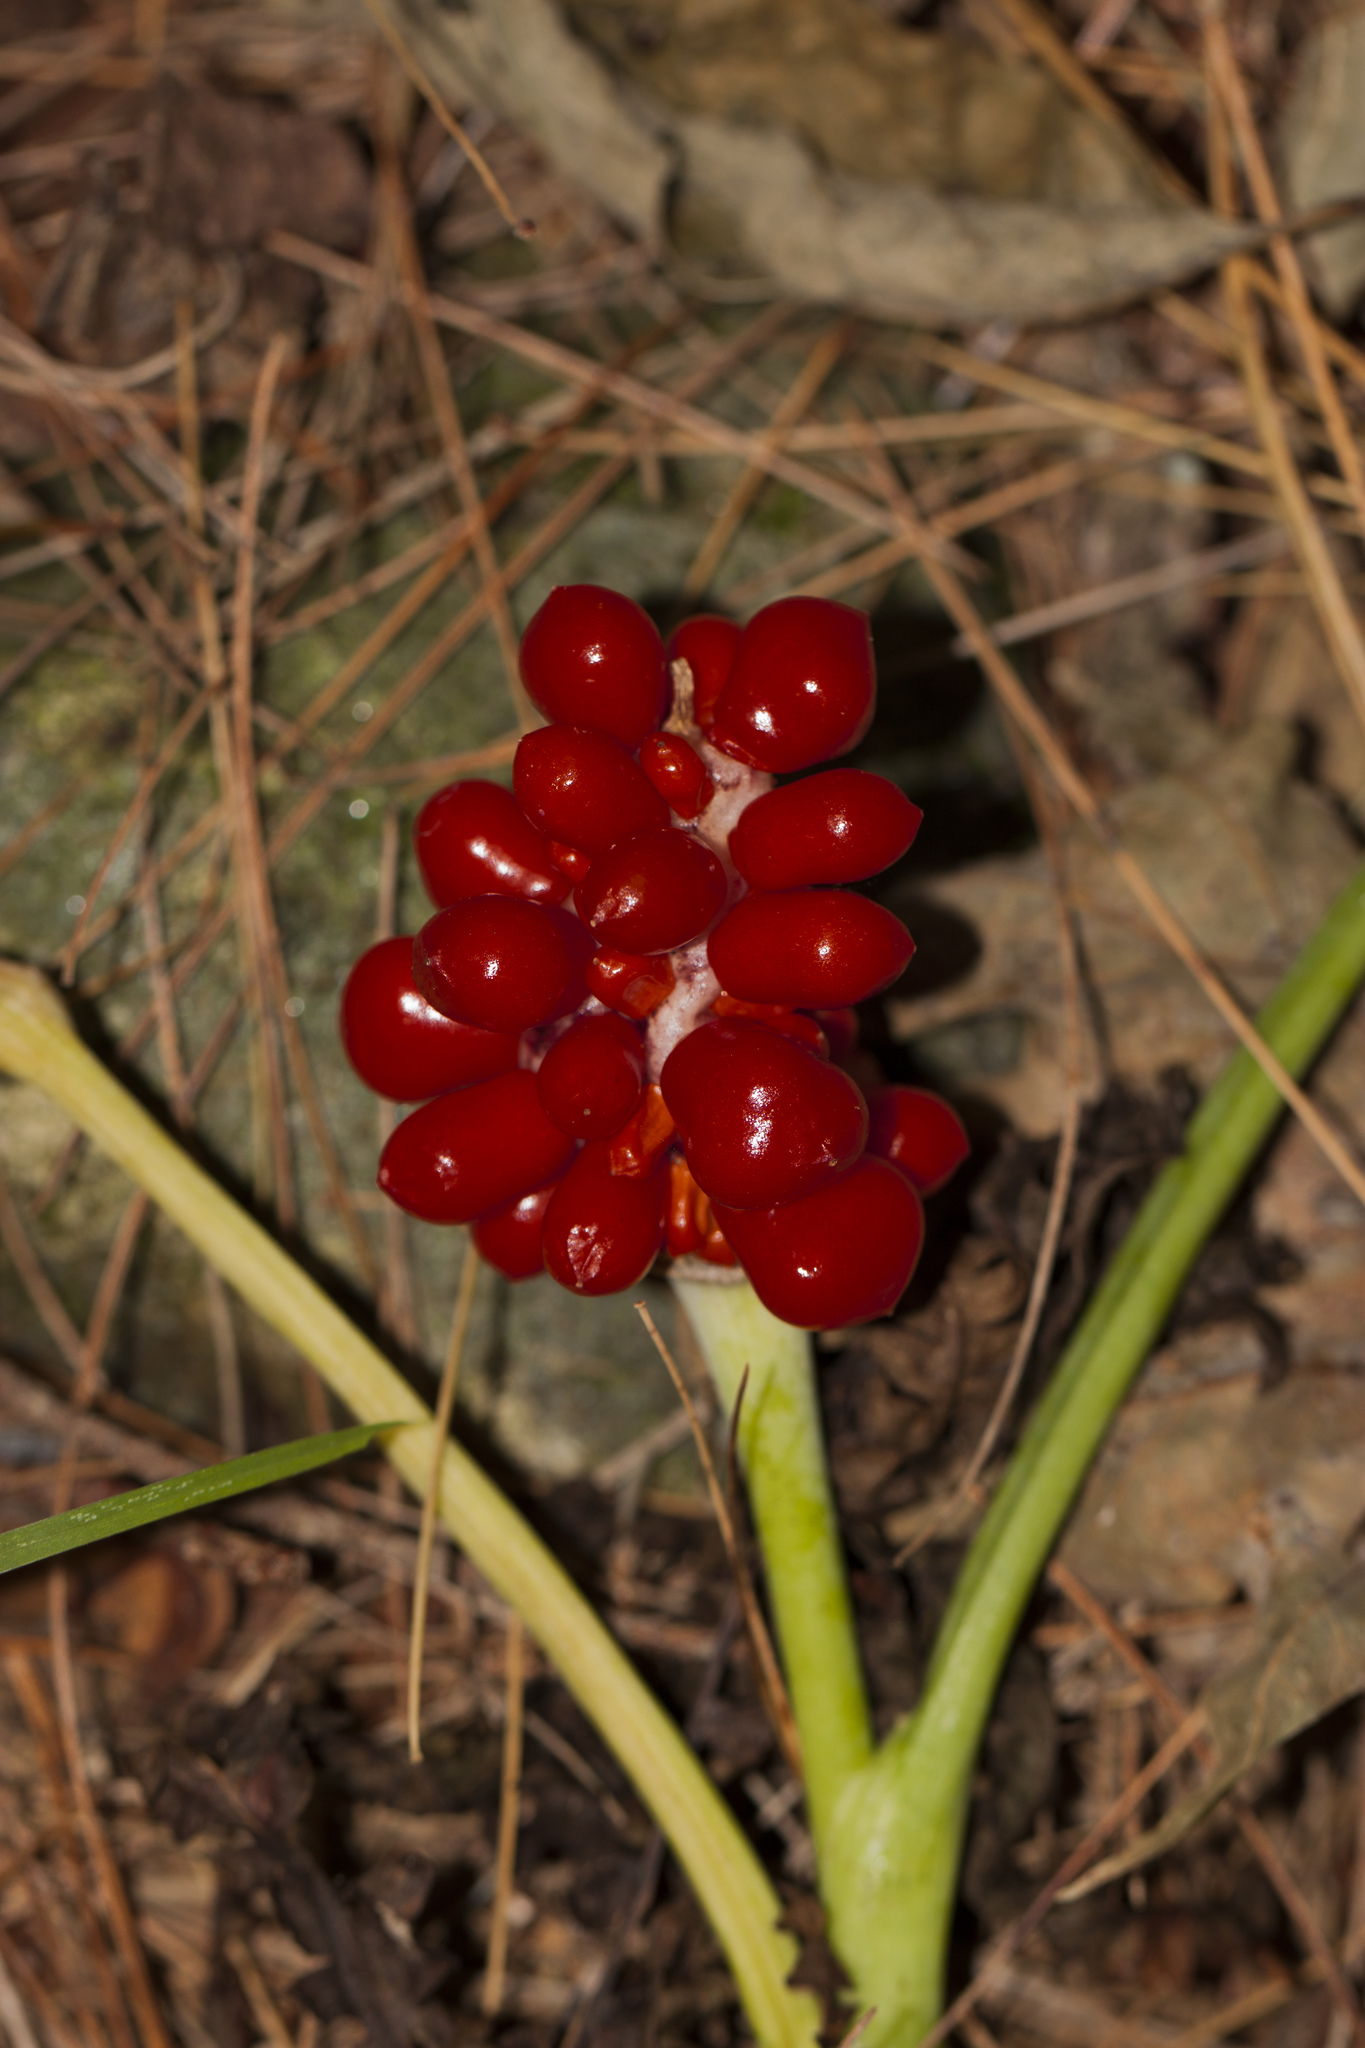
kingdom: Plantae
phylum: Tracheophyta
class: Liliopsida
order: Alismatales
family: Araceae
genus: Arisaema
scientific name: Arisaema triphyllum
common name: Jack-in-the-pulpit
